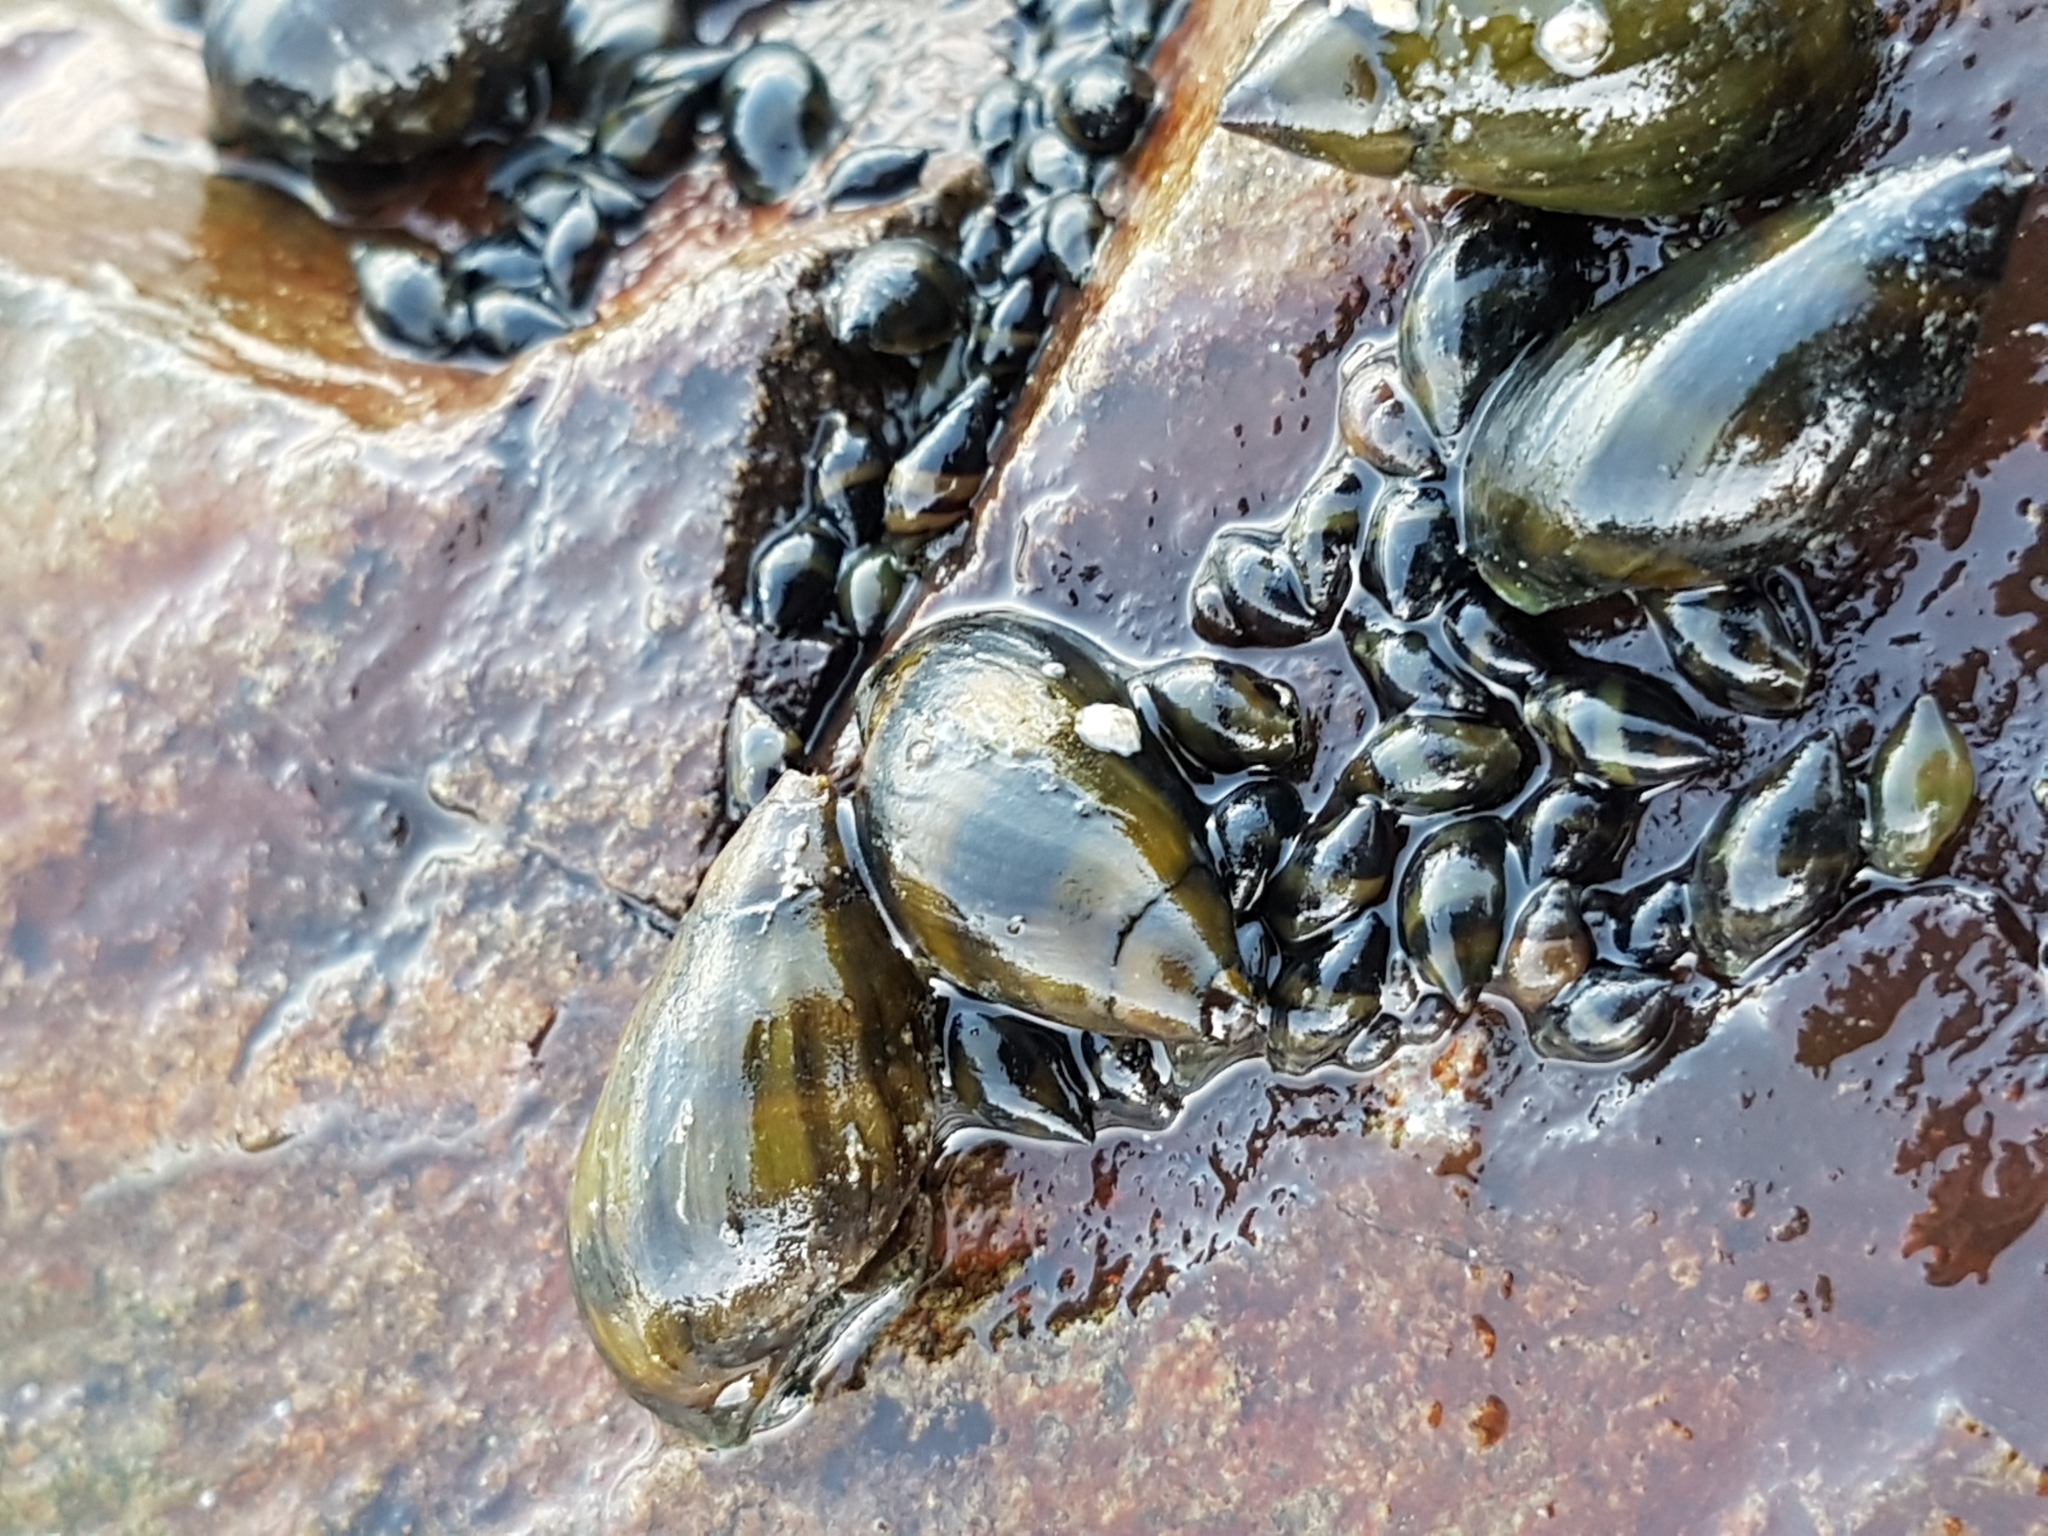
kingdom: Animalia
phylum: Mollusca
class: Gastropoda
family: Zemelanopsidae
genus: Zemelanopsis
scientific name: Zemelanopsis trifasciata
